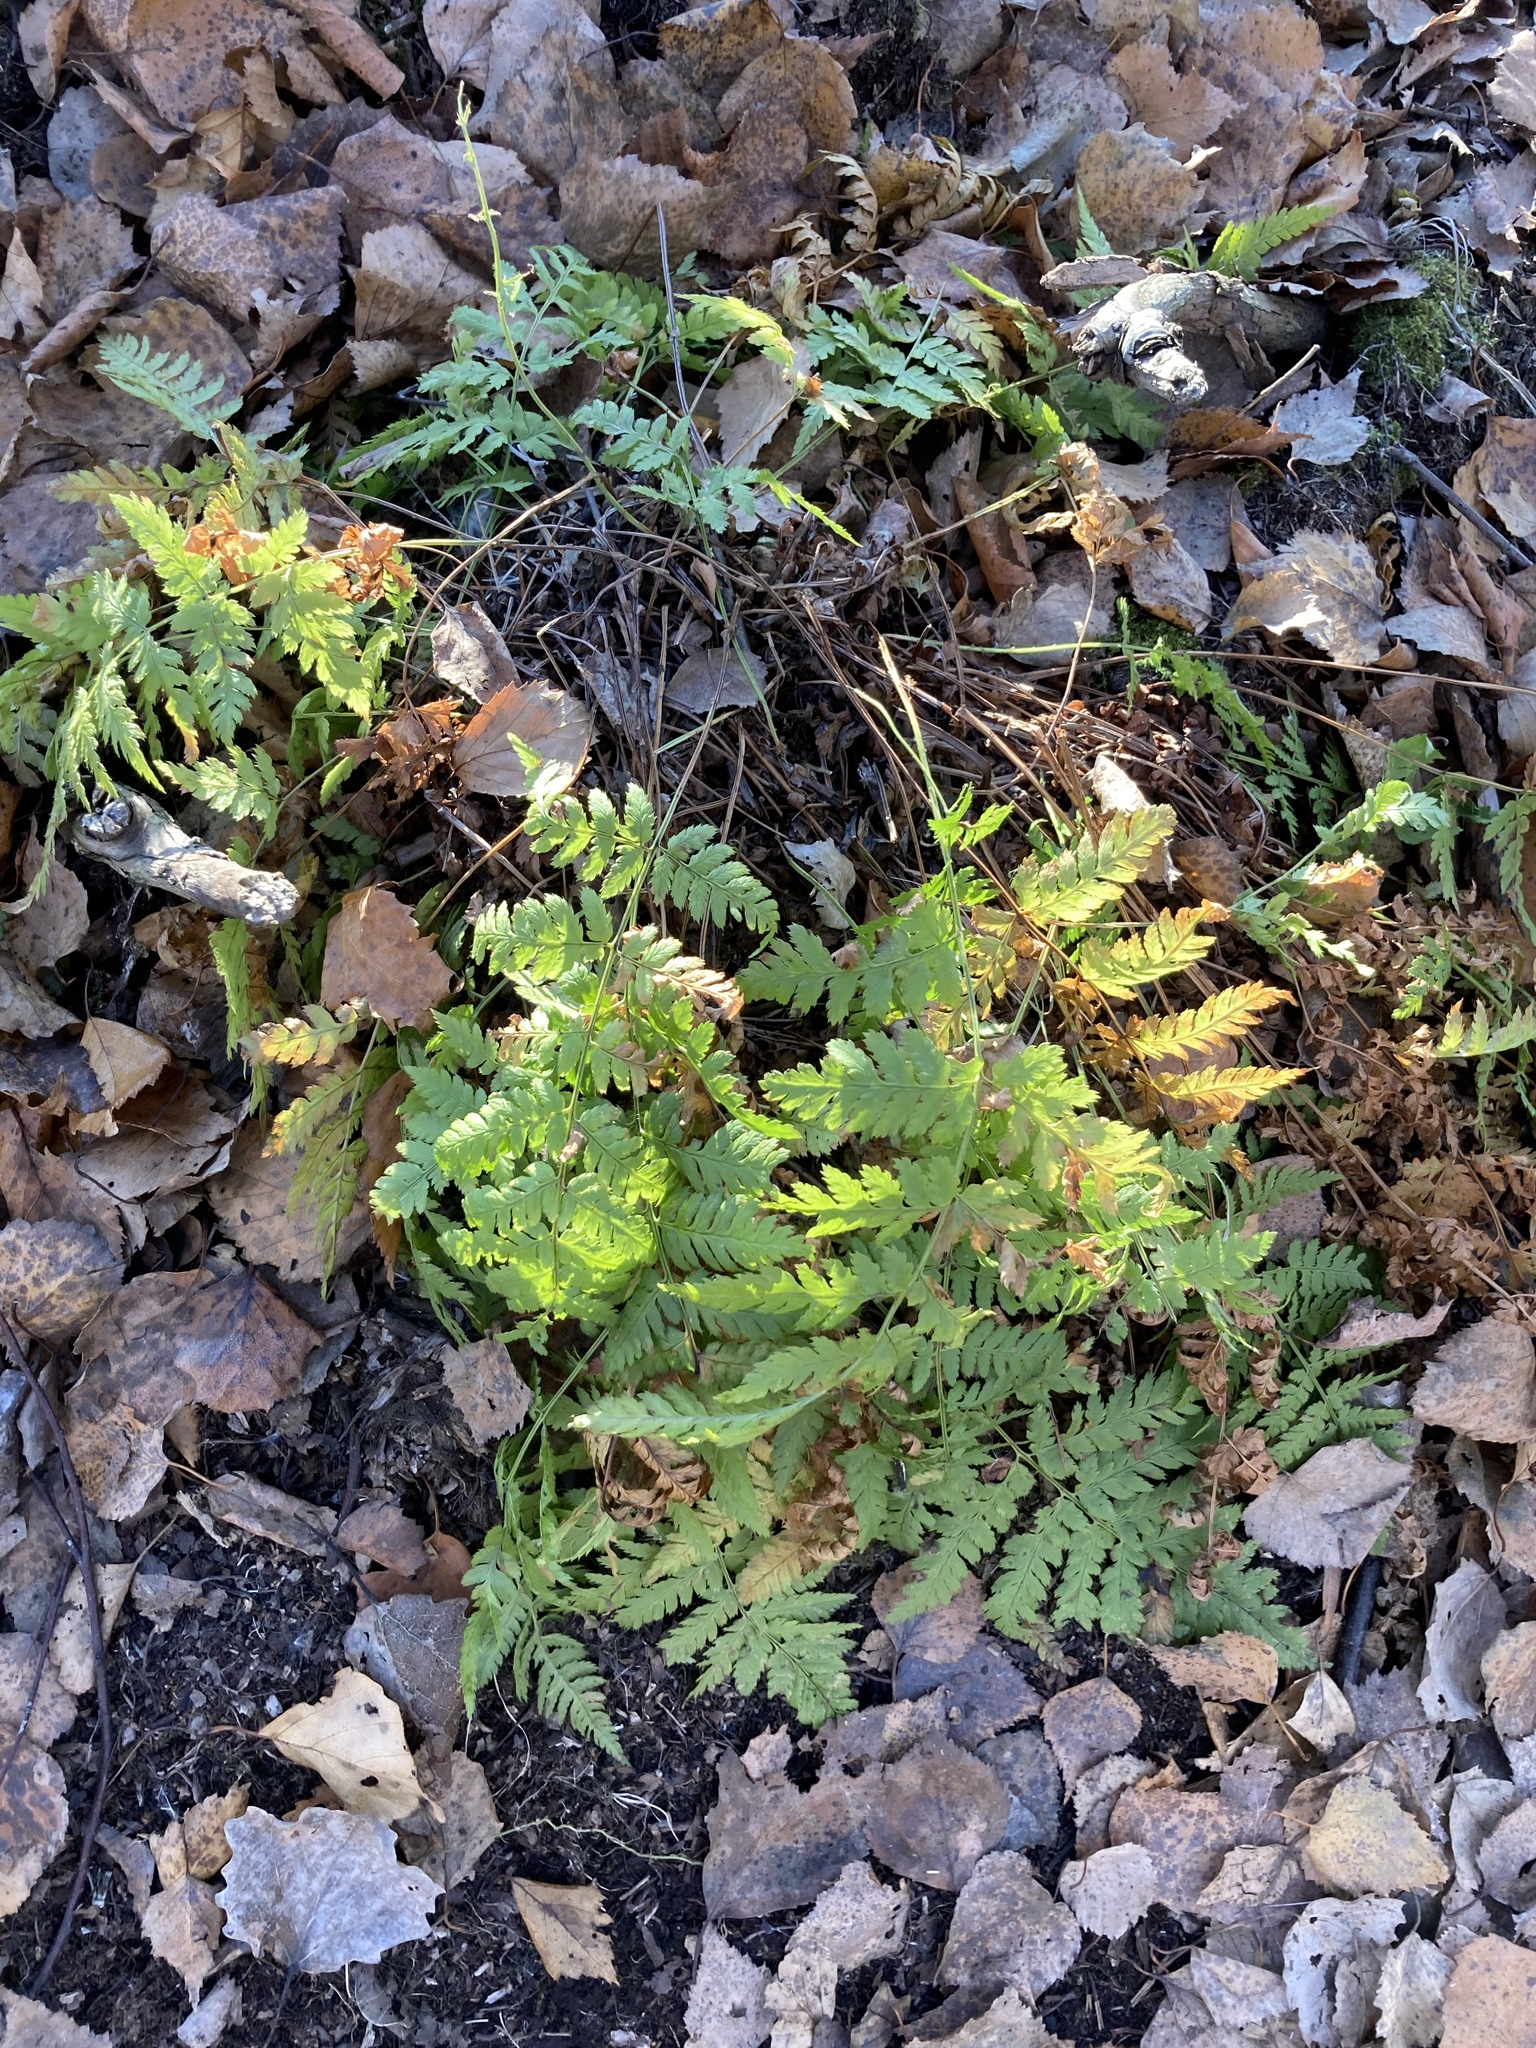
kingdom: Plantae
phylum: Tracheophyta
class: Polypodiopsida
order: Polypodiales
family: Dryopteridaceae
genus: Dryopteris
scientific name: Dryopteris carthusiana
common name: Narrow buckler-fern
